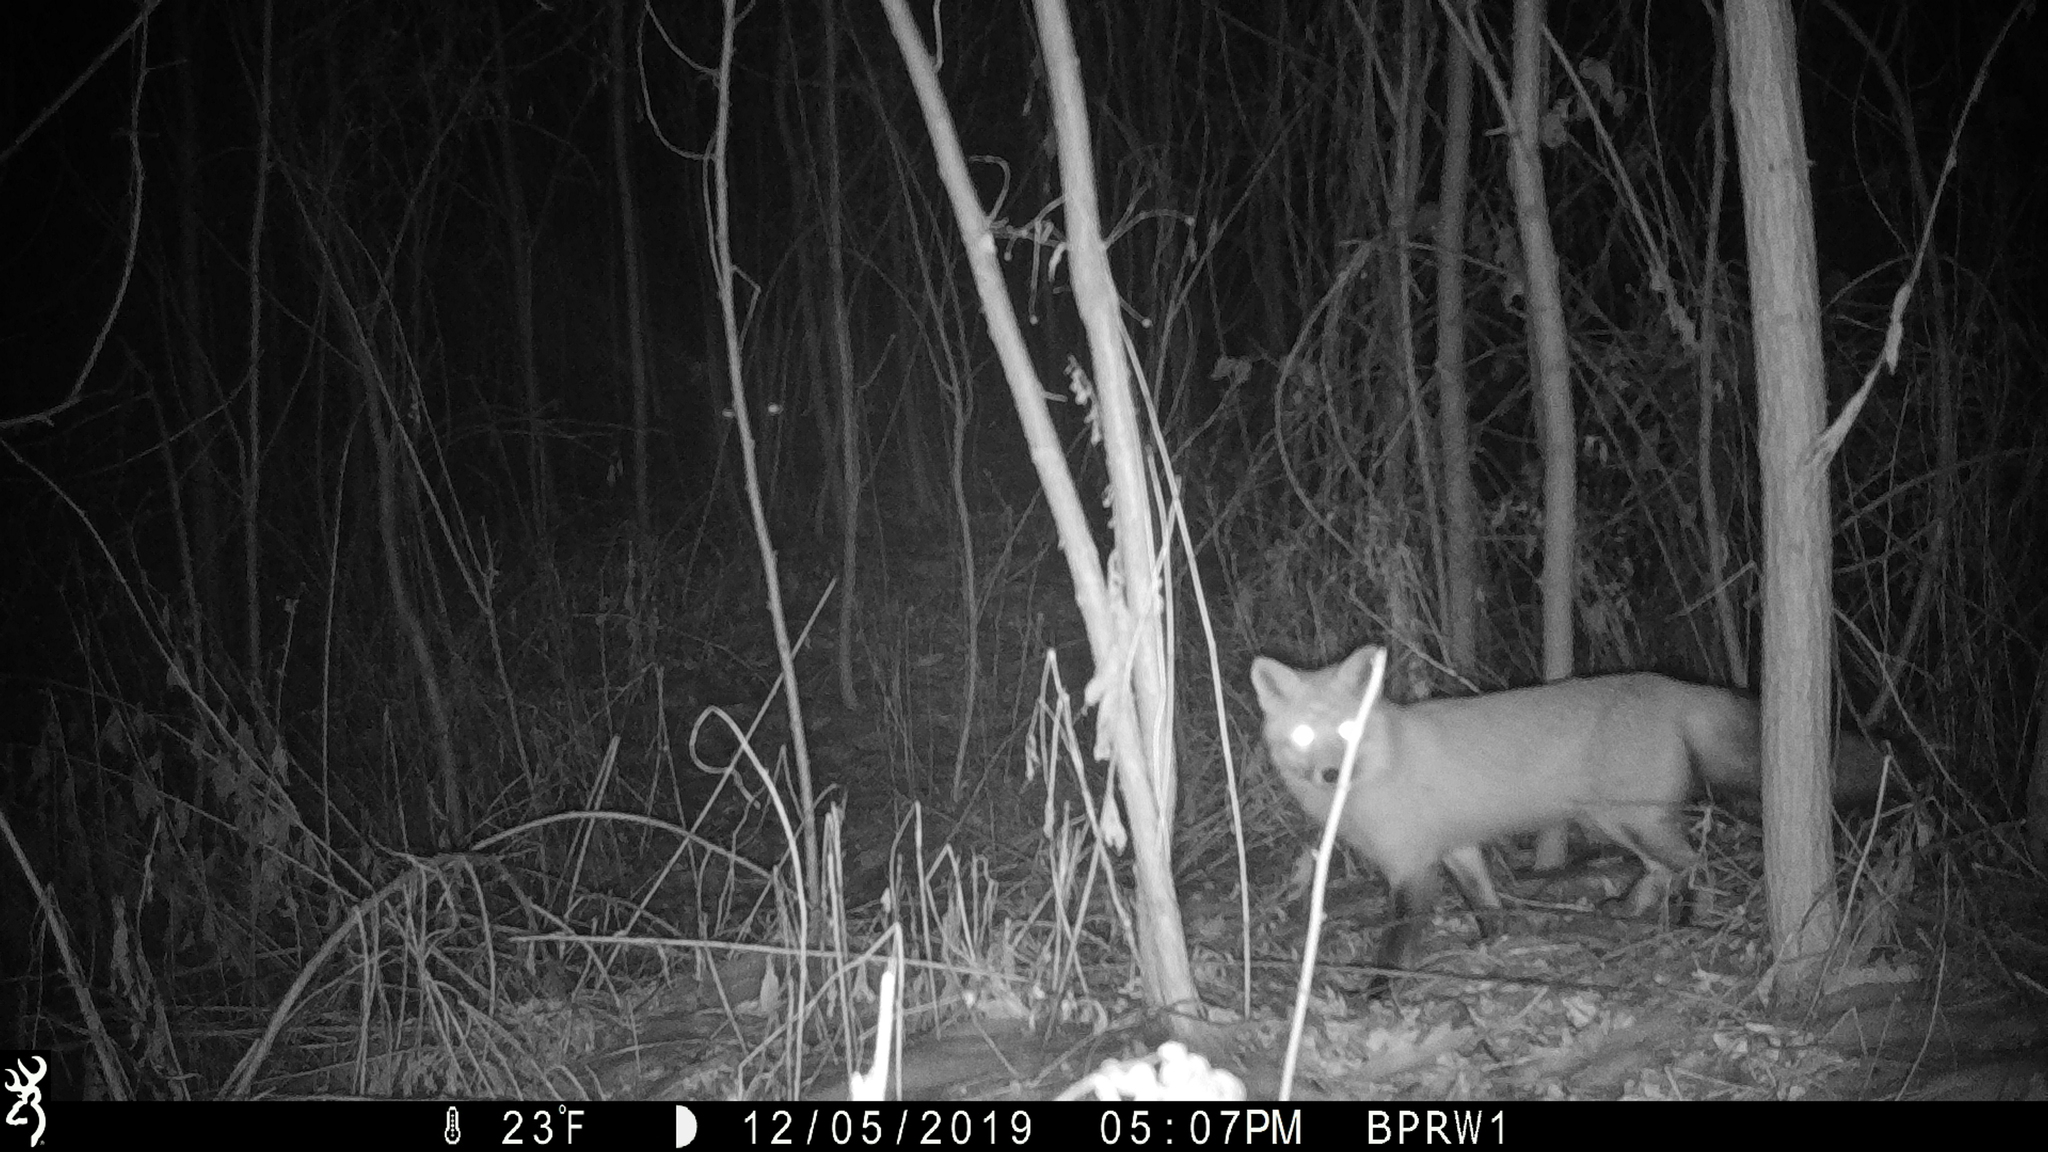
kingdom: Animalia
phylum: Chordata
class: Mammalia
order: Carnivora
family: Canidae
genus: Vulpes
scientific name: Vulpes vulpes
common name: Red fox
